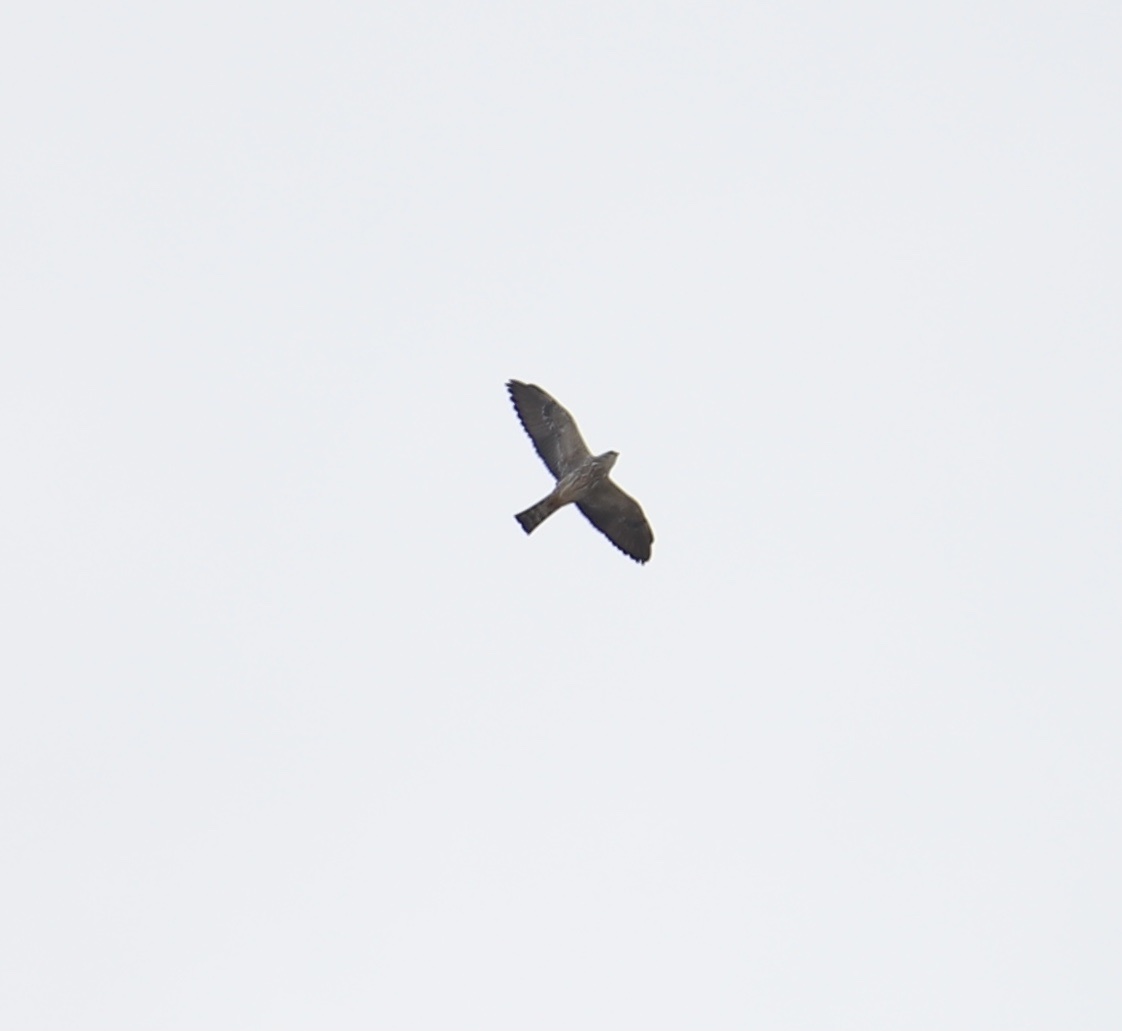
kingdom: Animalia
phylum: Chordata
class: Aves
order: Accipitriformes
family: Accipitridae
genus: Ictinia
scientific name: Ictinia mississippiensis
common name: Mississippi kite
